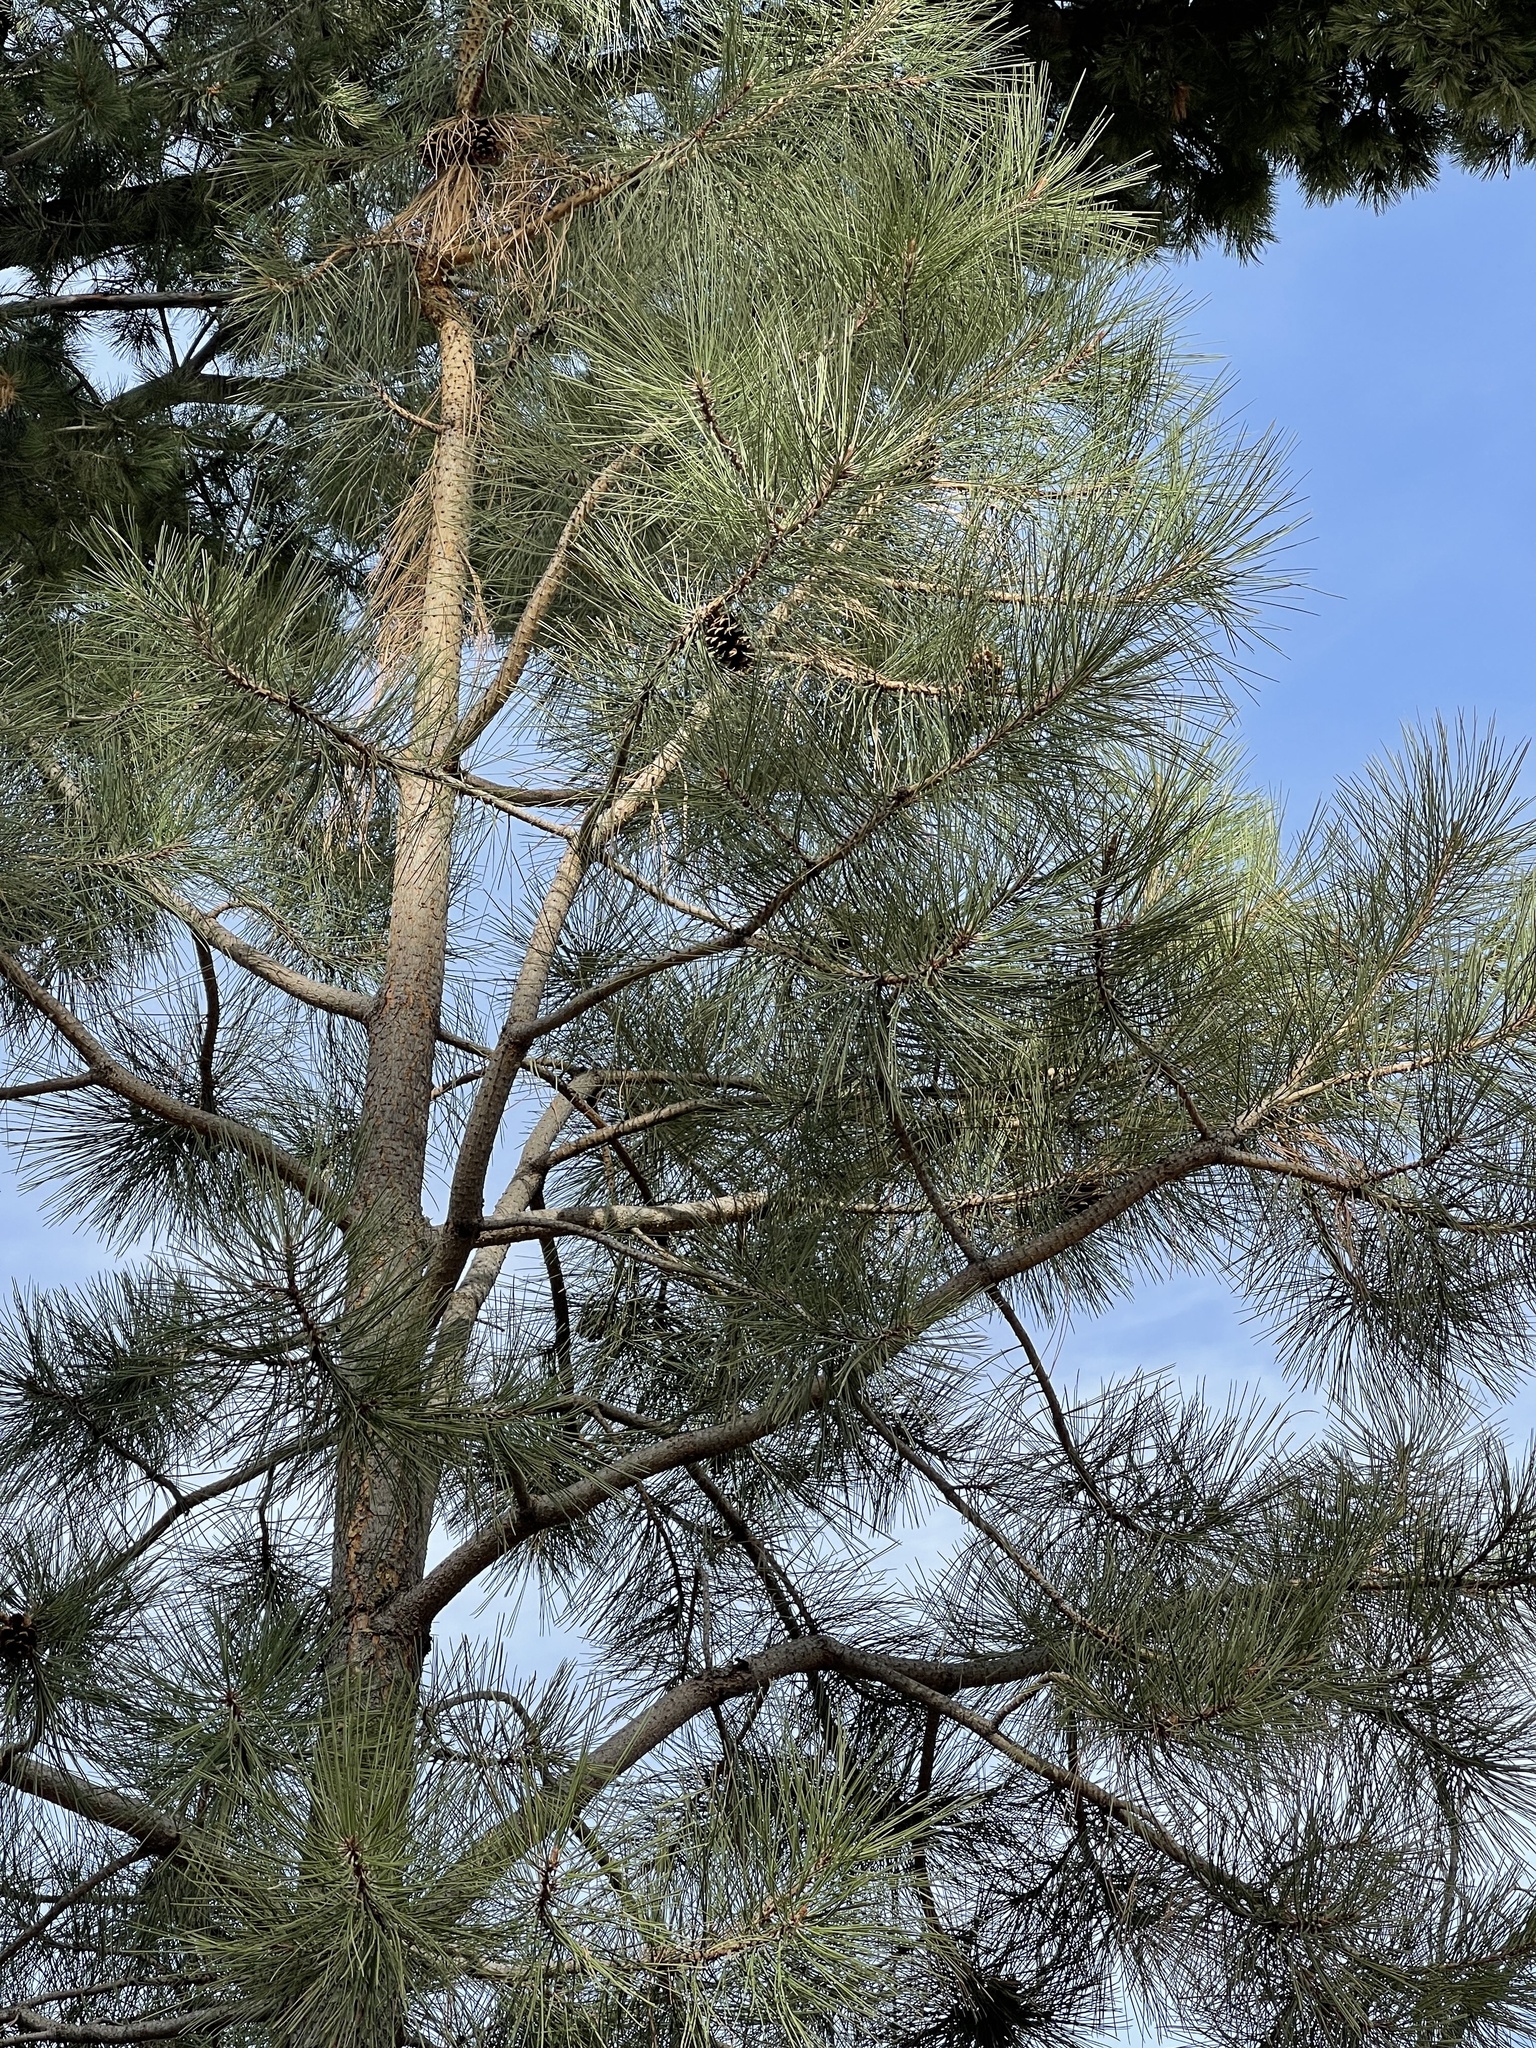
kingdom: Plantae
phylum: Tracheophyta
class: Pinopsida
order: Pinales
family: Pinaceae
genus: Pinus
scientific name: Pinus ponderosa
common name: Western yellow-pine
